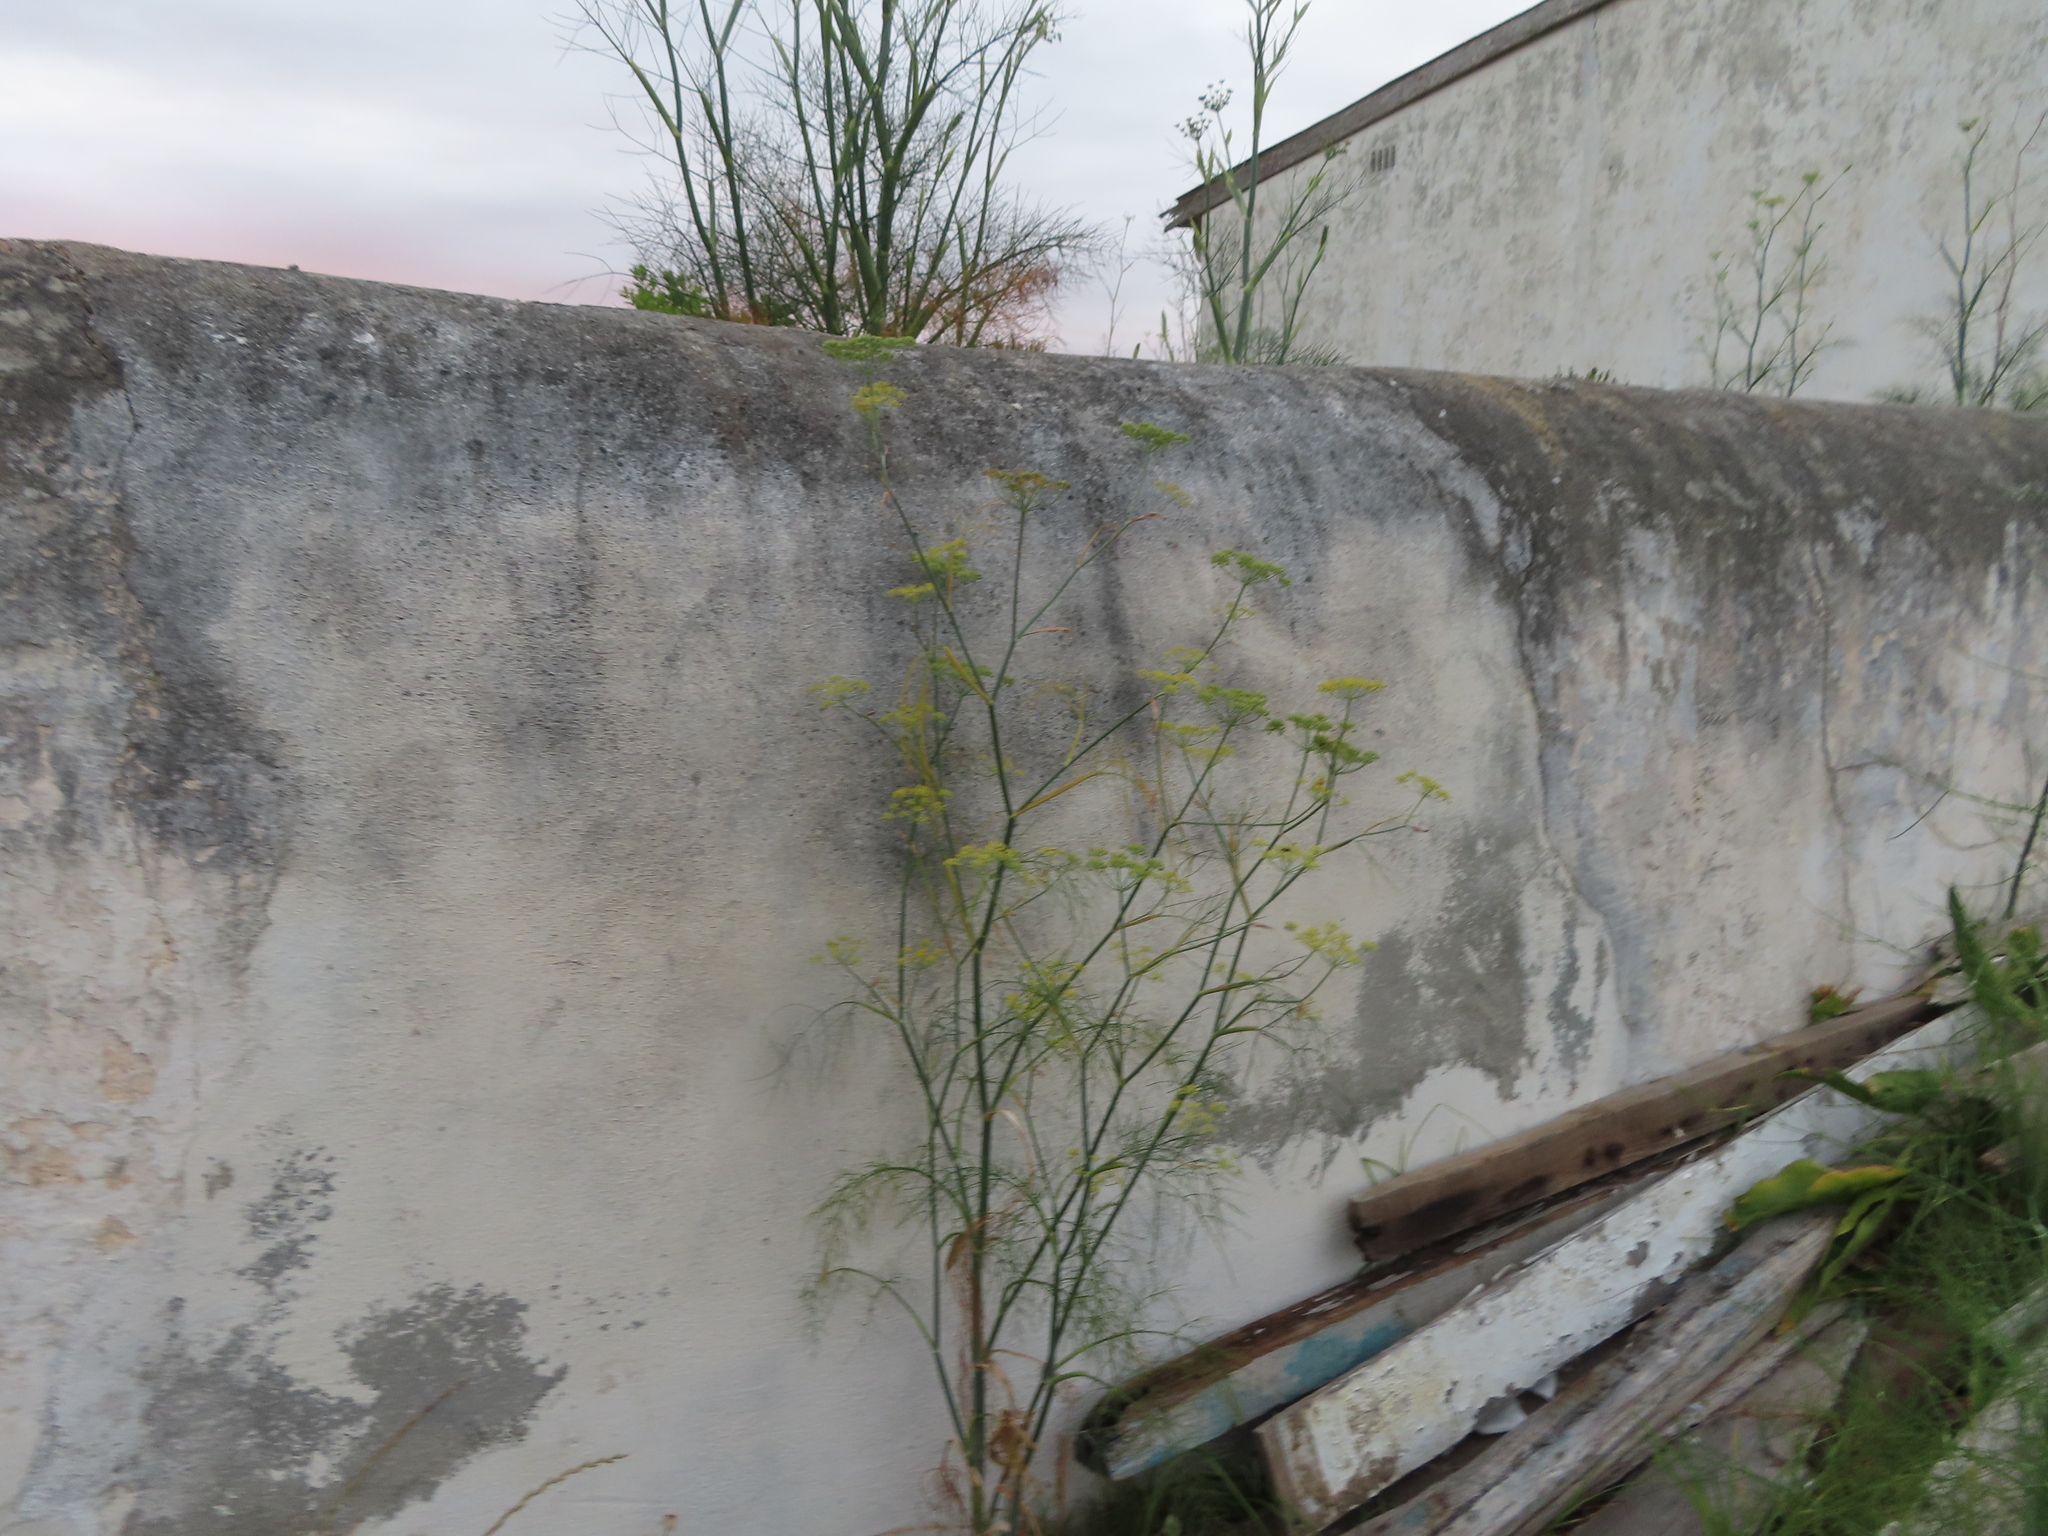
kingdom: Plantae
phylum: Tracheophyta
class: Magnoliopsida
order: Apiales
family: Apiaceae
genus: Foeniculum
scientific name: Foeniculum vulgare
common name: Fennel
